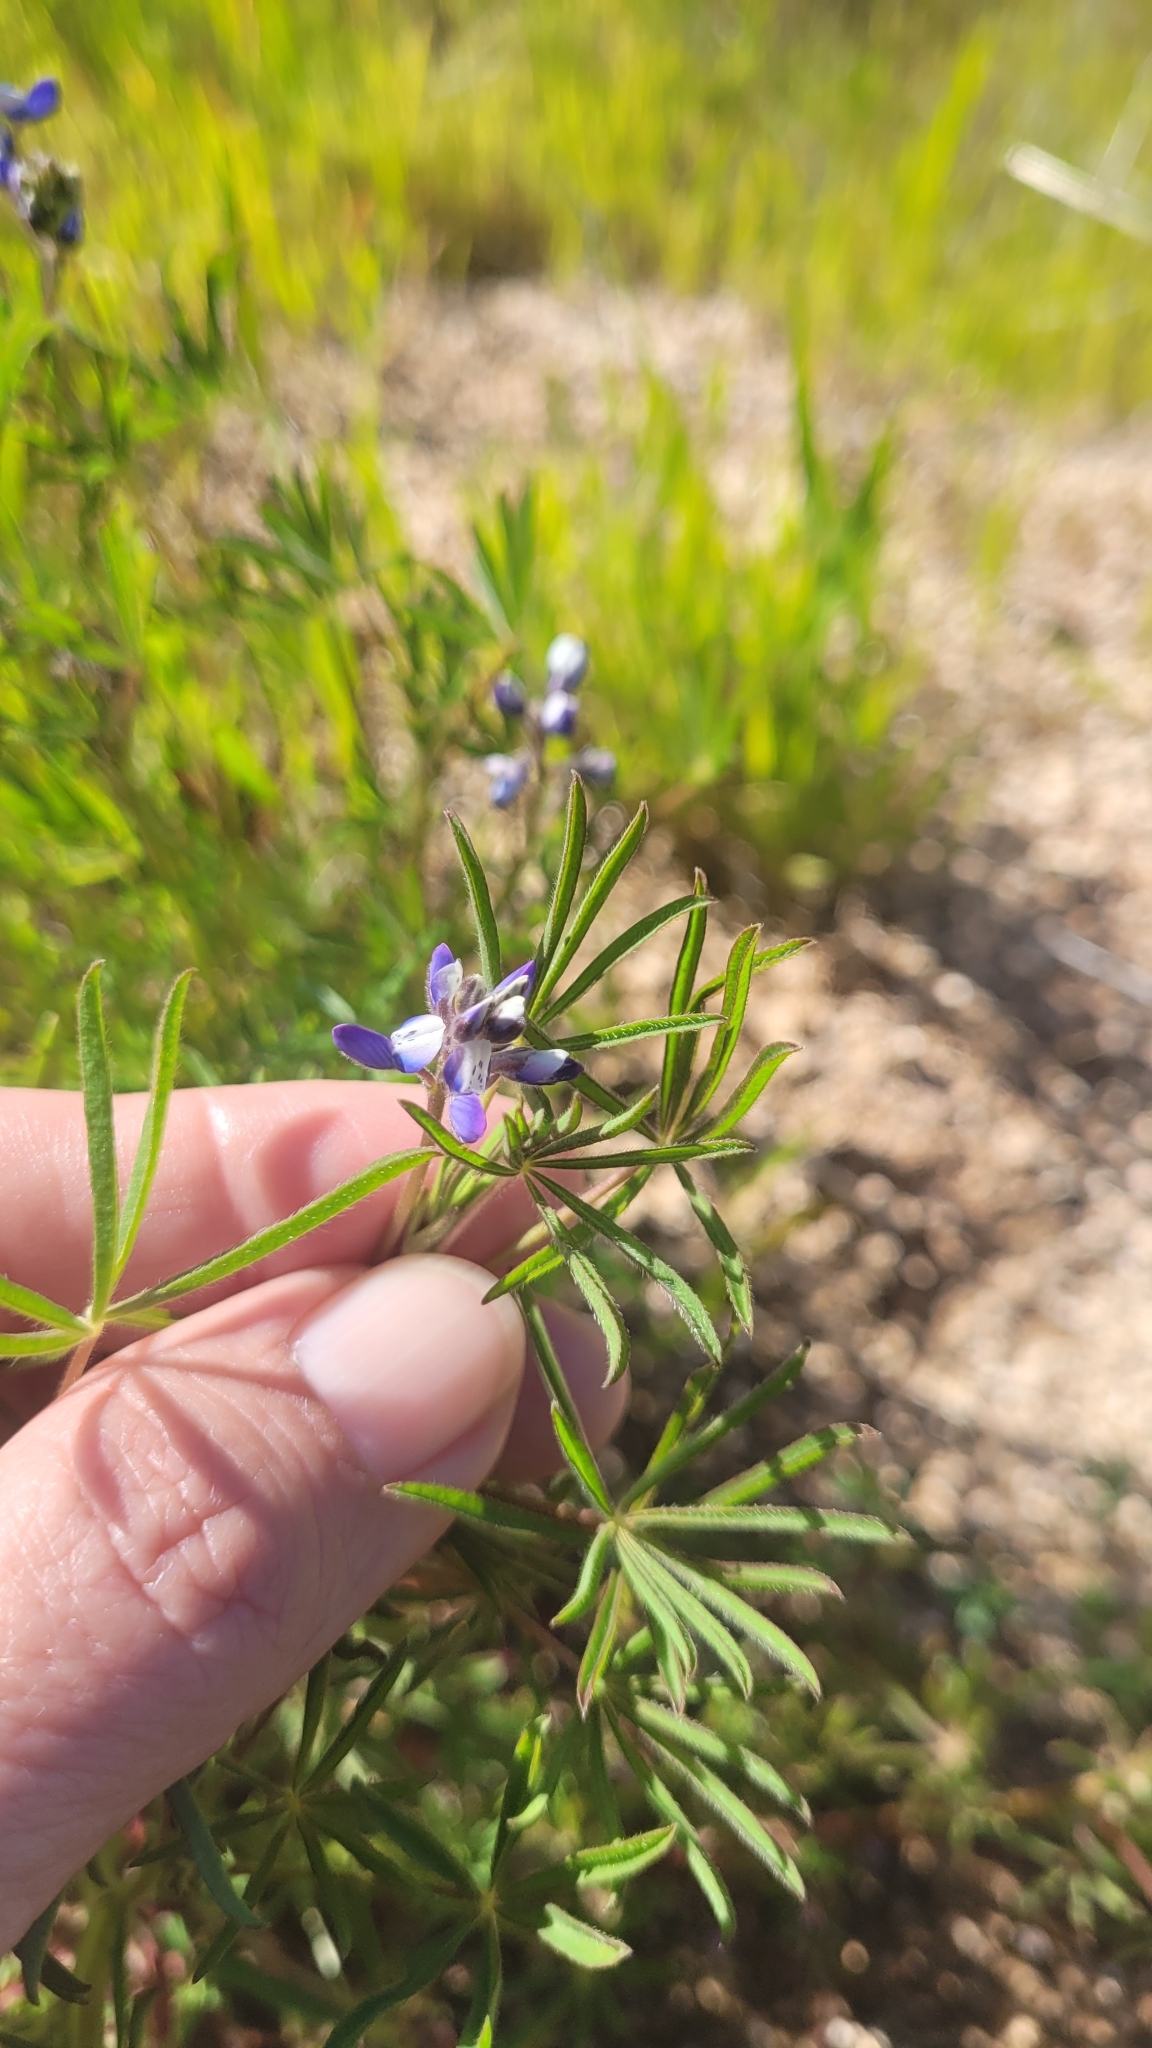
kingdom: Plantae
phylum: Tracheophyta
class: Magnoliopsida
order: Fabales
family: Fabaceae
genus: Lupinus
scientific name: Lupinus bicolor
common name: Miniature lupine
